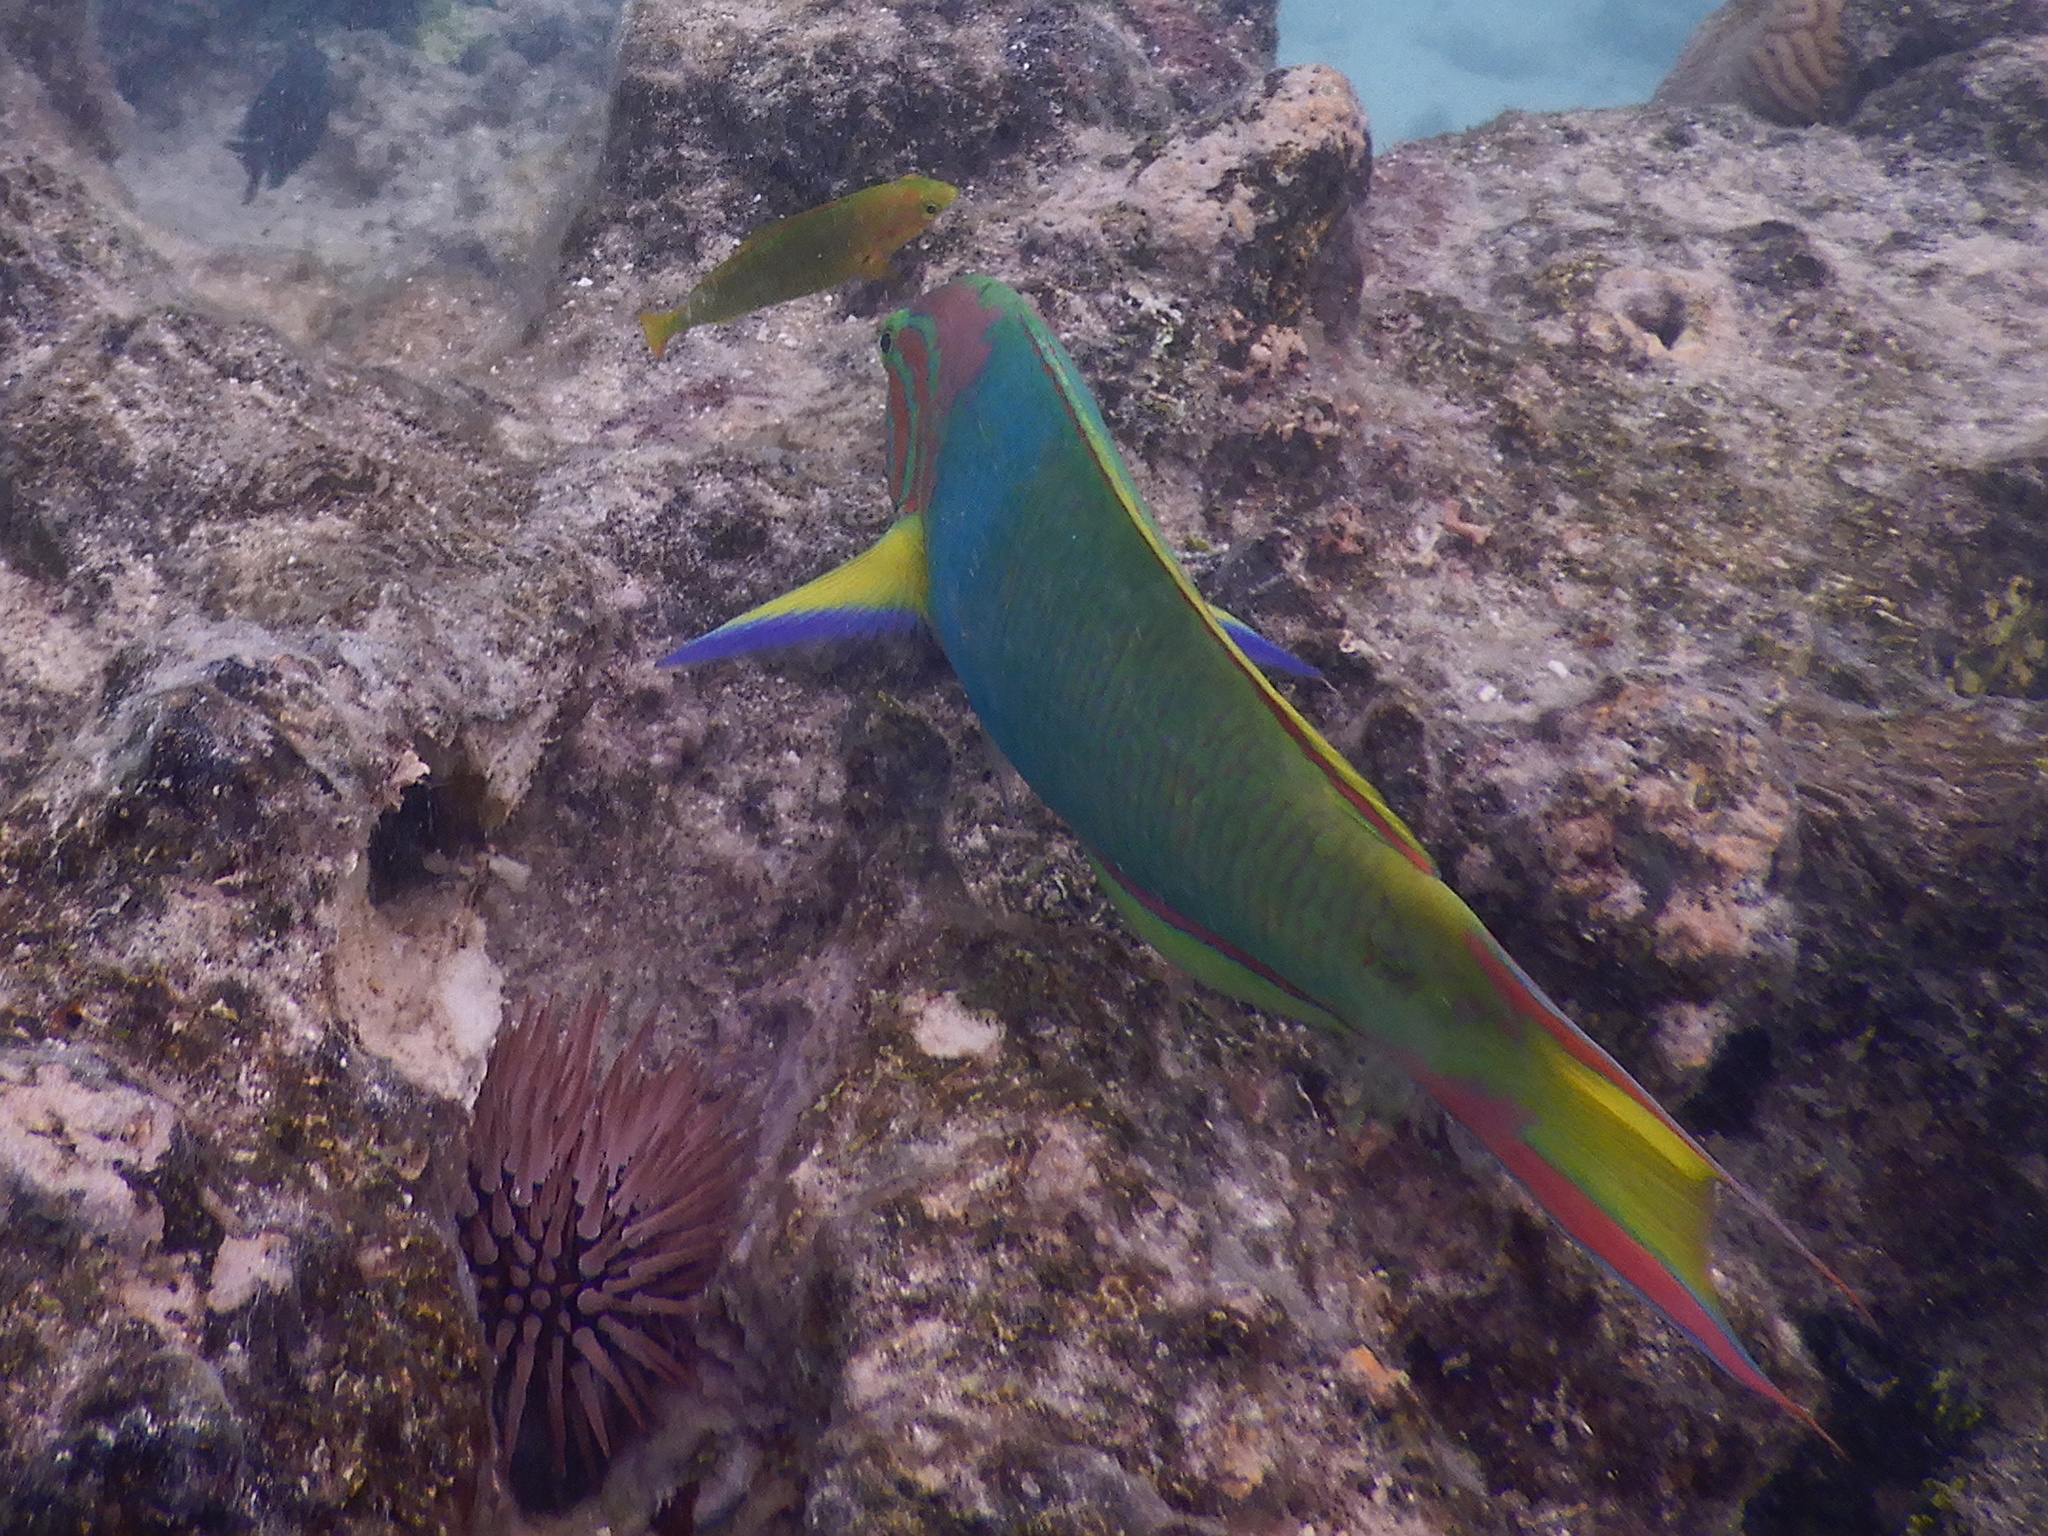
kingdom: Animalia
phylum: Chordata
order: Perciformes
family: Labridae
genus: Thalassoma
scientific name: Thalassoma lutescens
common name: Green moon wrasse
